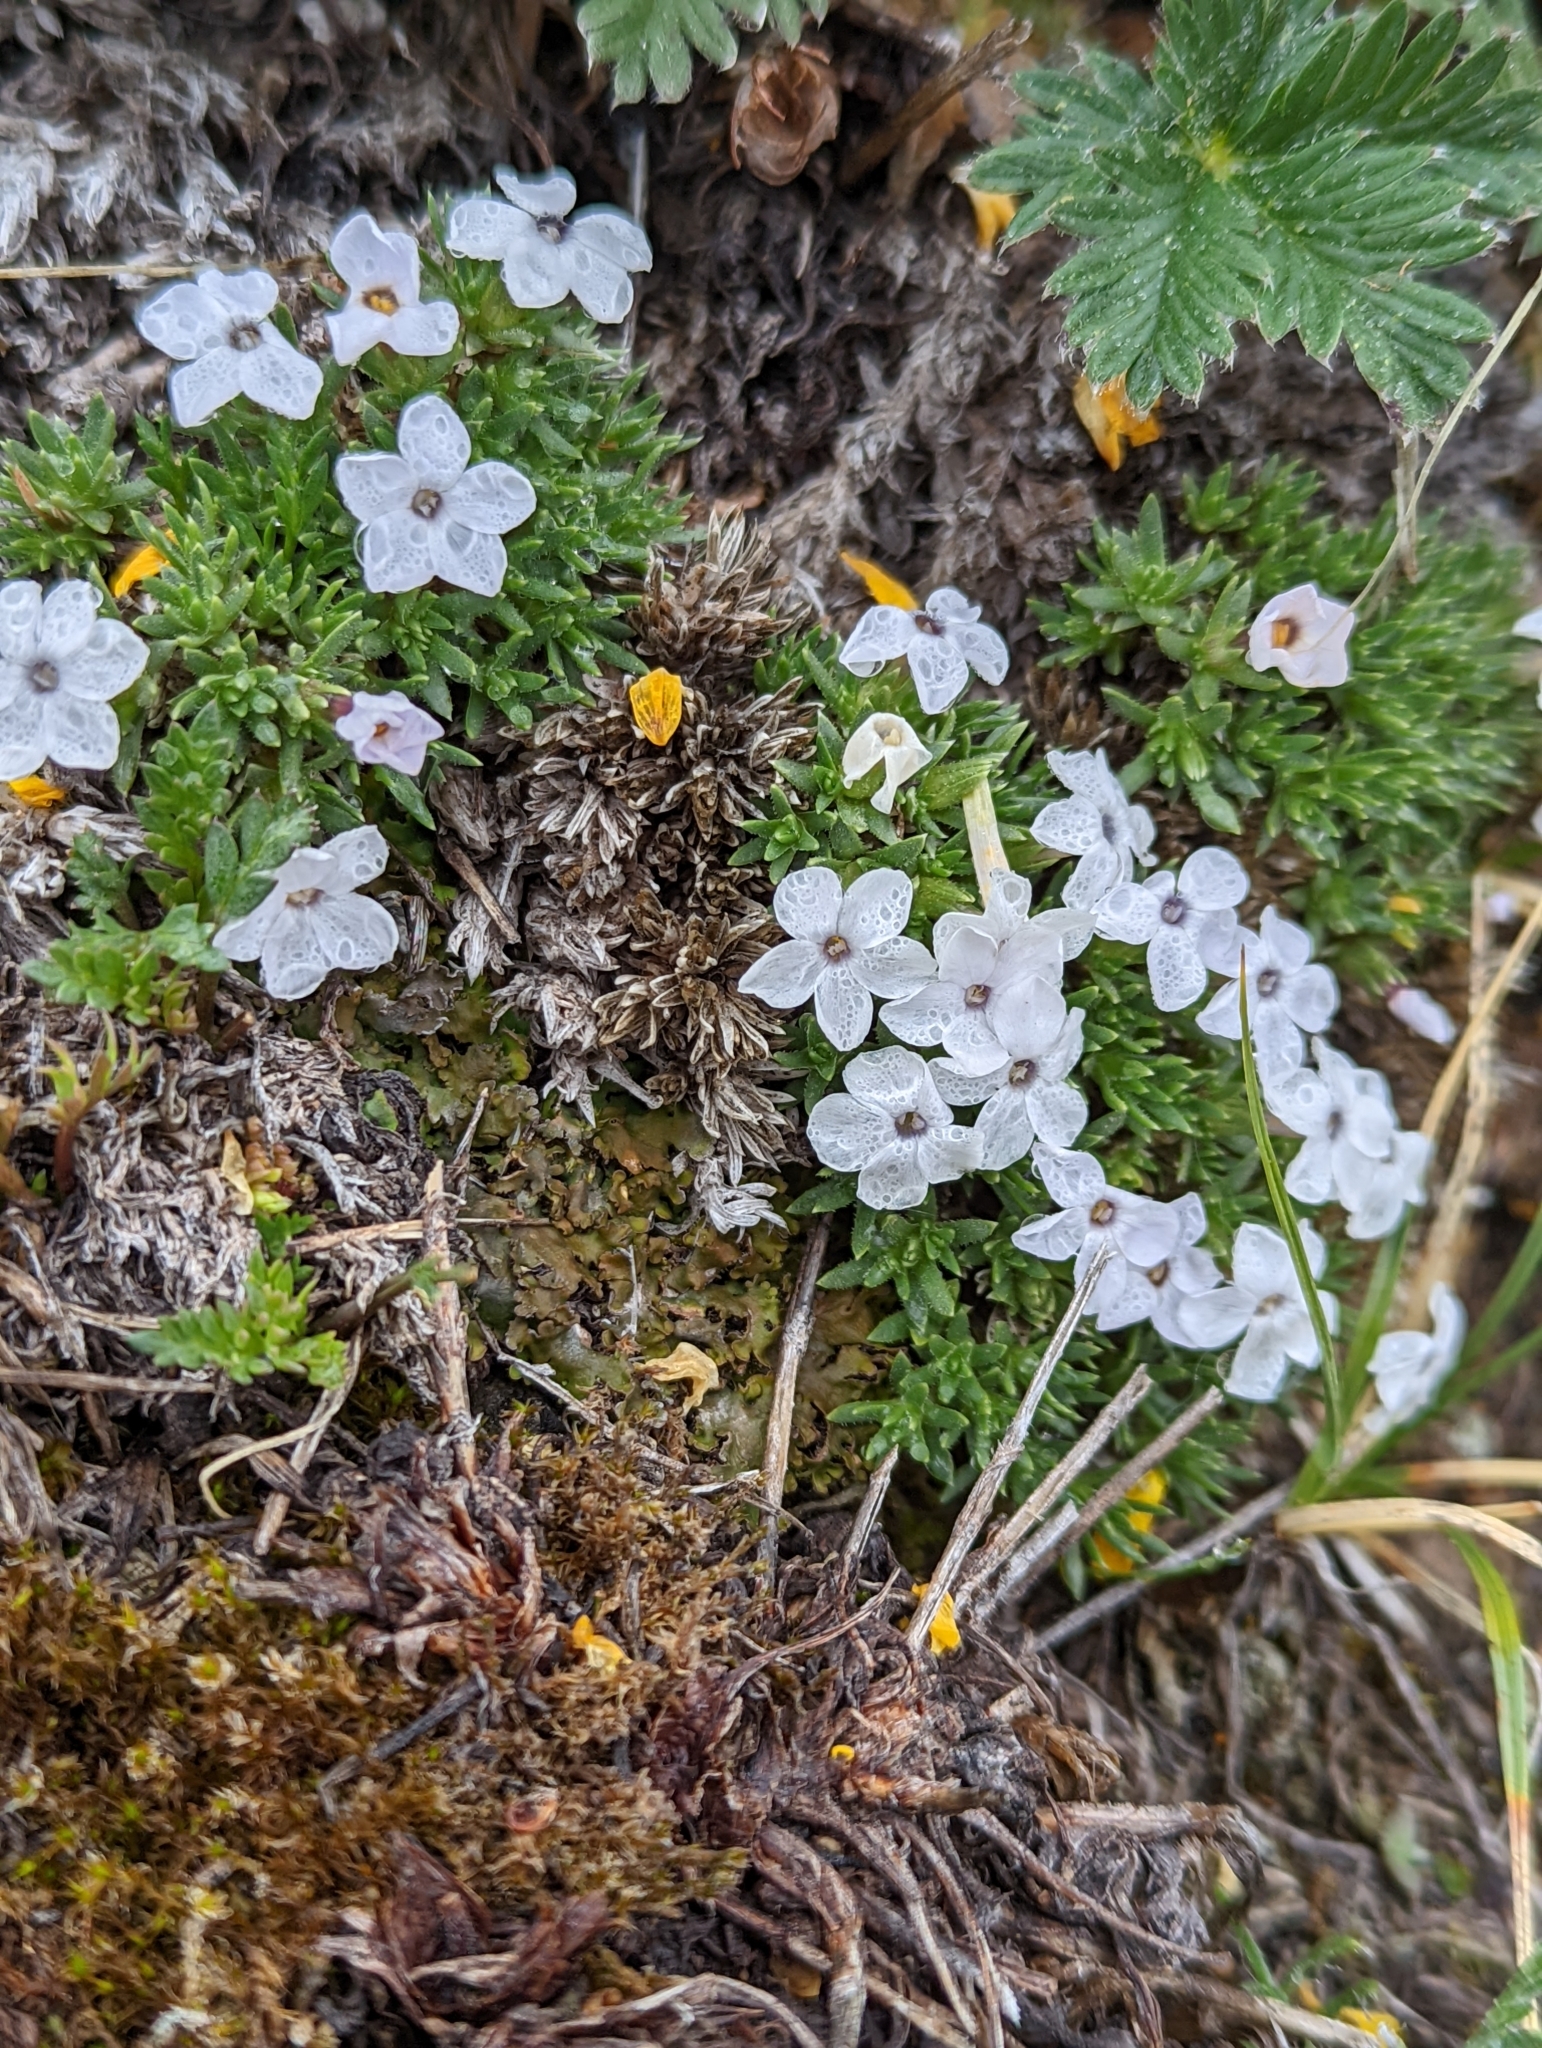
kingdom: Plantae
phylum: Tracheophyta
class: Magnoliopsida
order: Ericales
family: Polemoniaceae
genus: Phlox
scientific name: Phlox condensata
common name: Compact phlox
